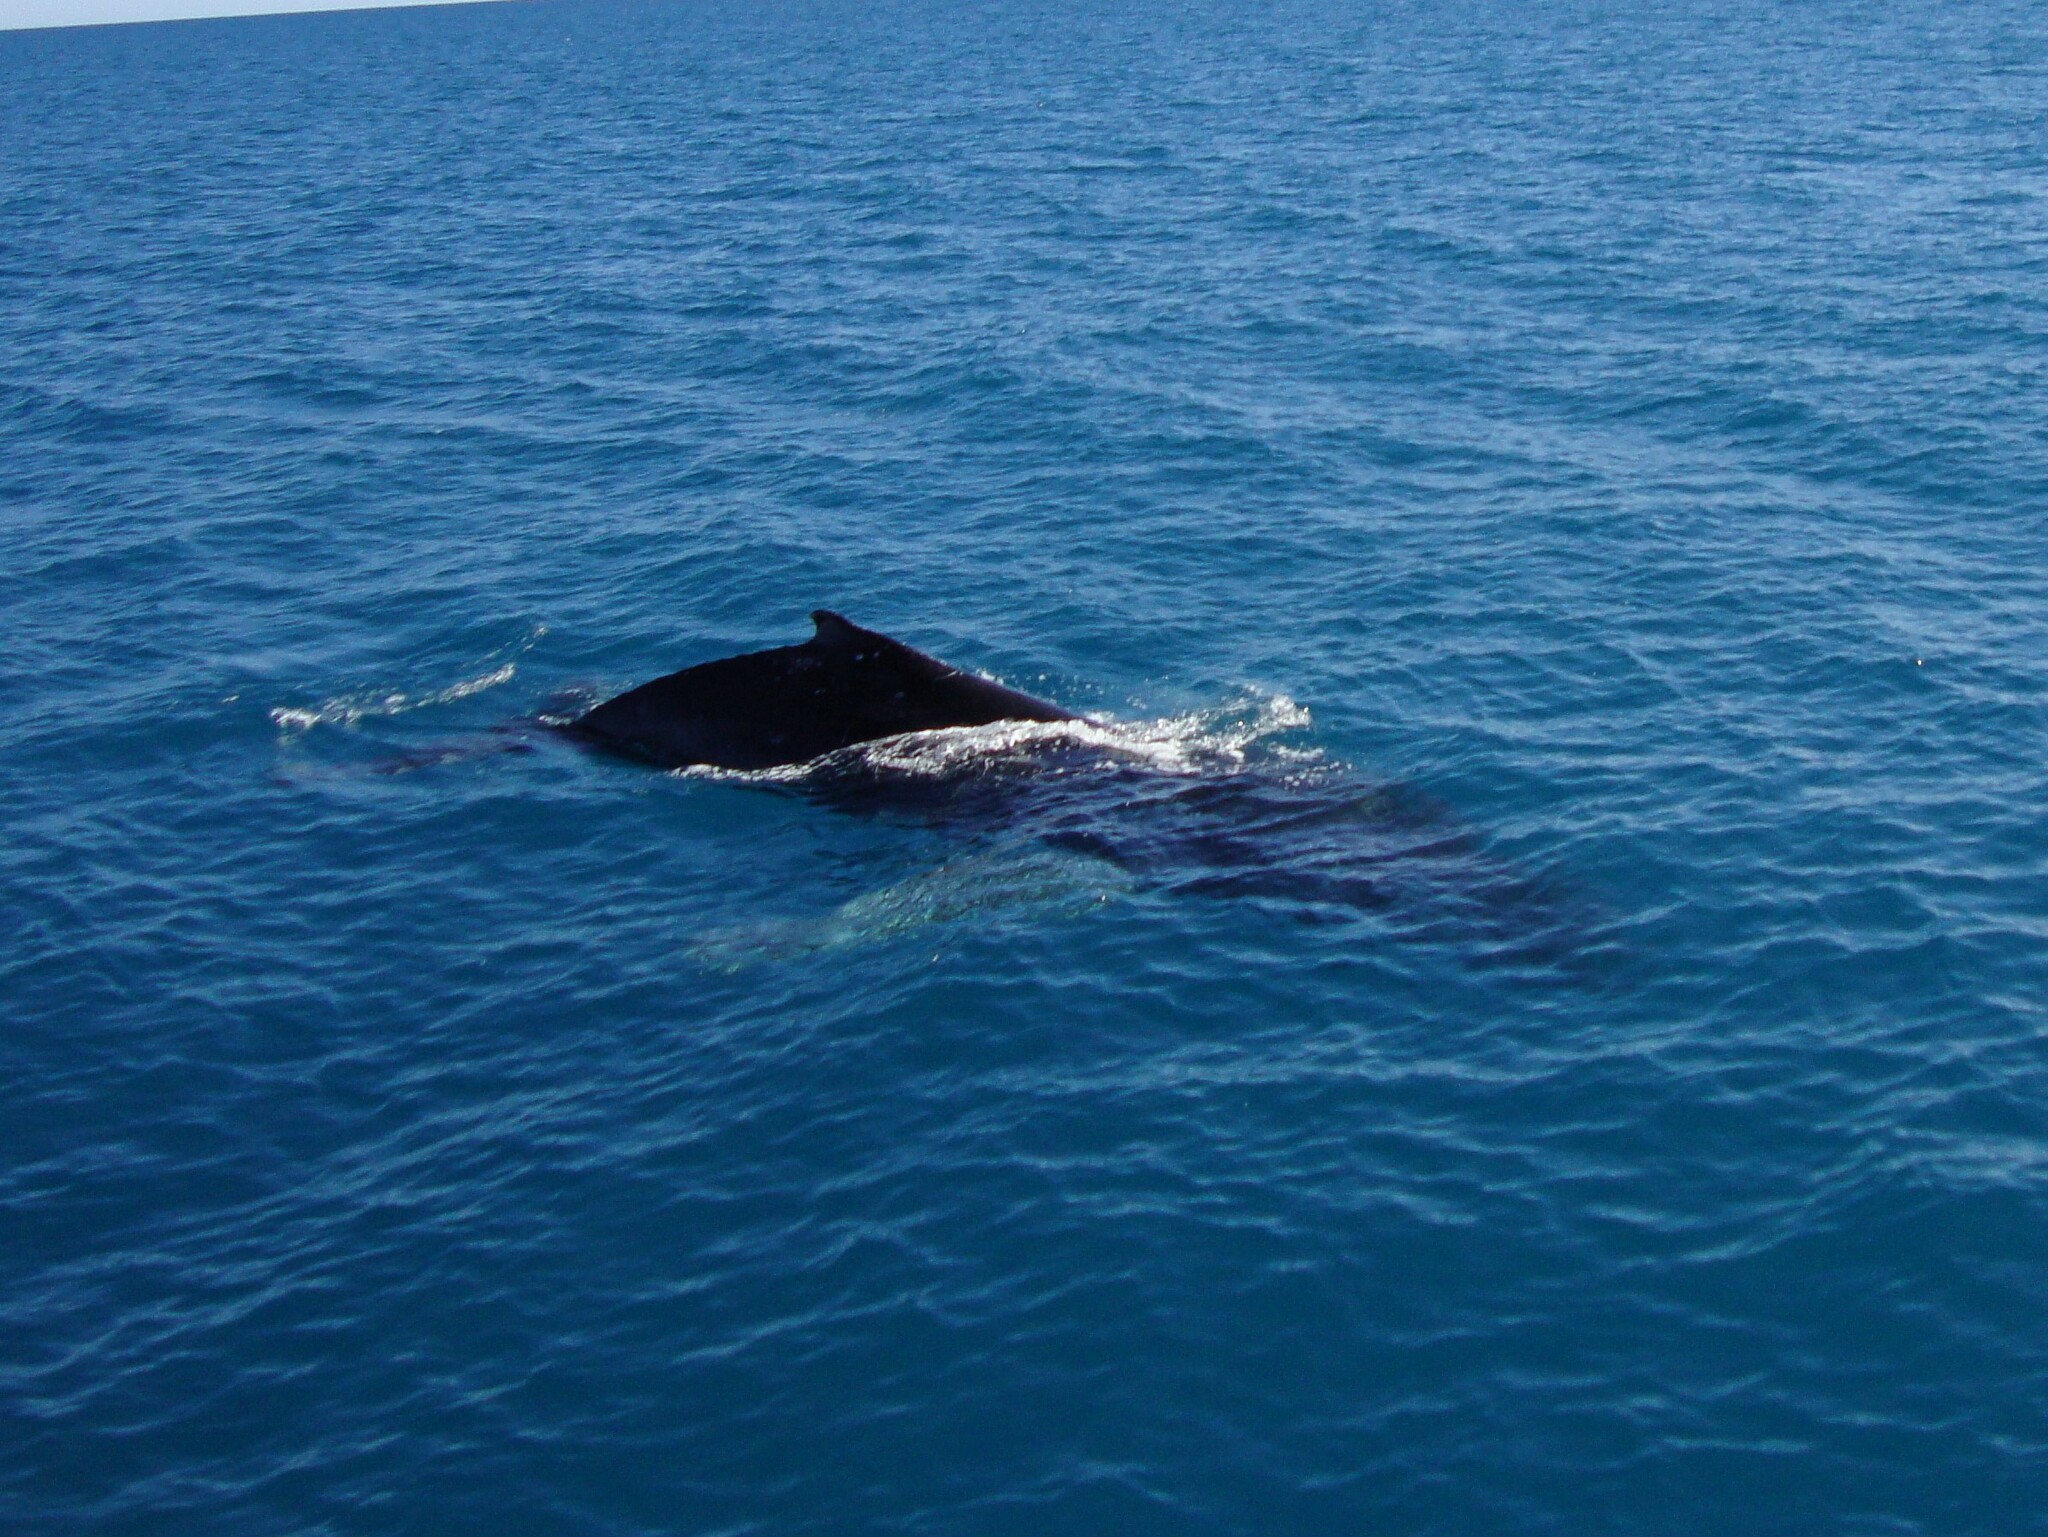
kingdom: Animalia
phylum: Chordata
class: Mammalia
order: Cetacea
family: Balaenopteridae
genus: Megaptera
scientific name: Megaptera novaeangliae
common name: Humpback whale
